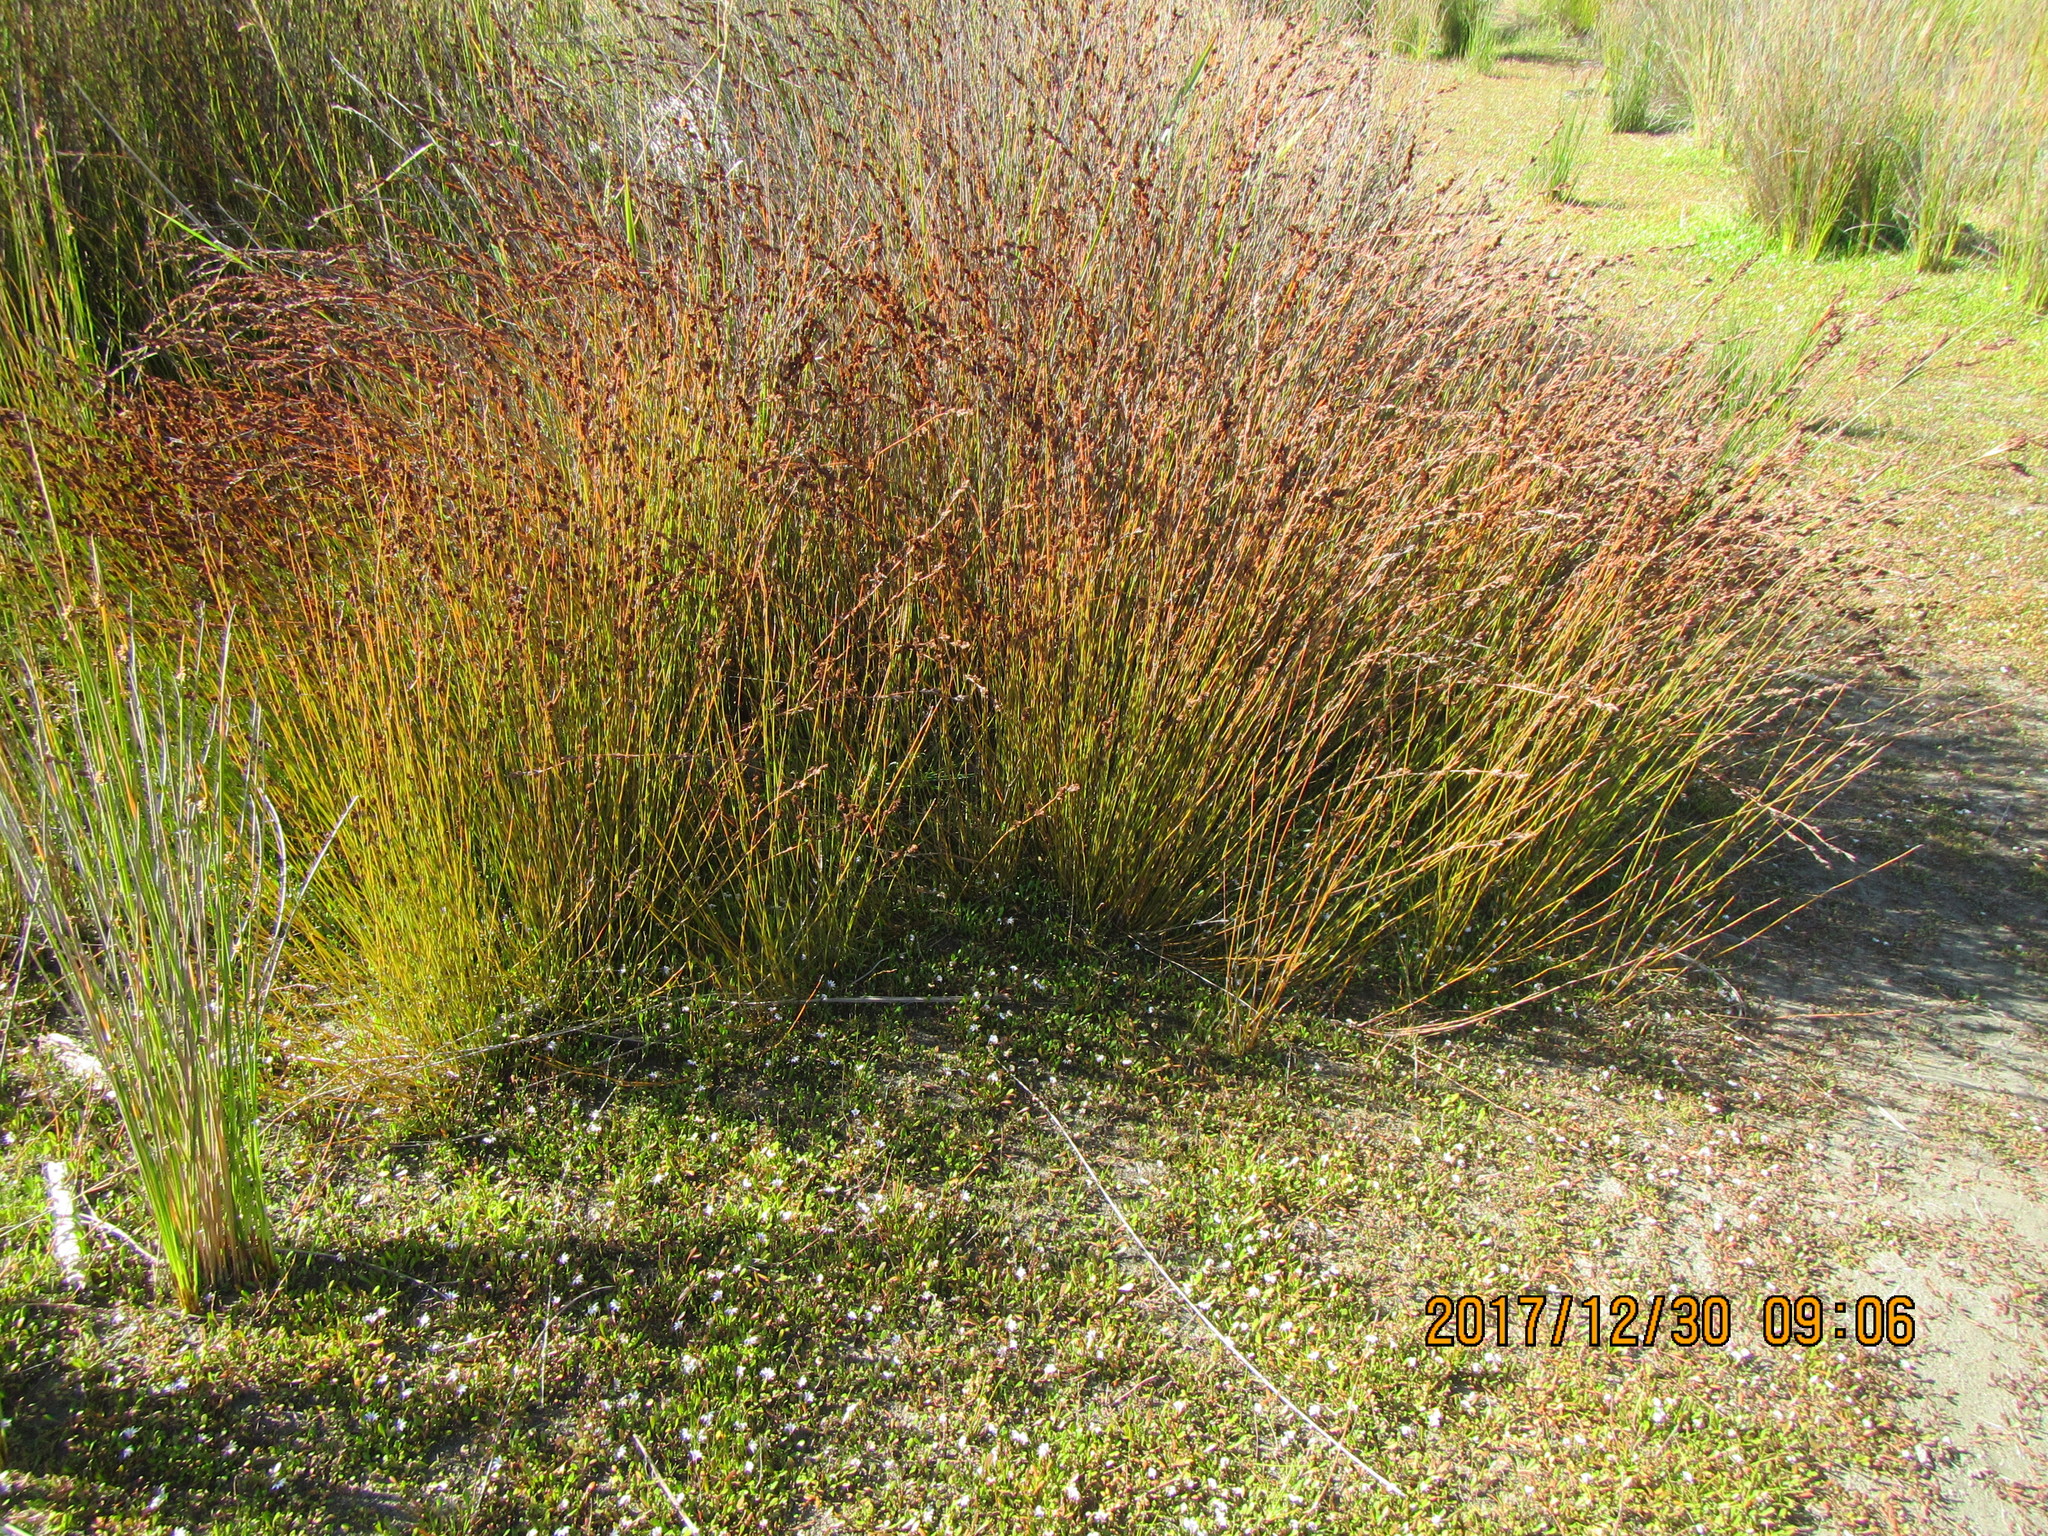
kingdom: Plantae
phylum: Tracheophyta
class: Liliopsida
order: Poales
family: Restionaceae
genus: Apodasmia
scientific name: Apodasmia similis
